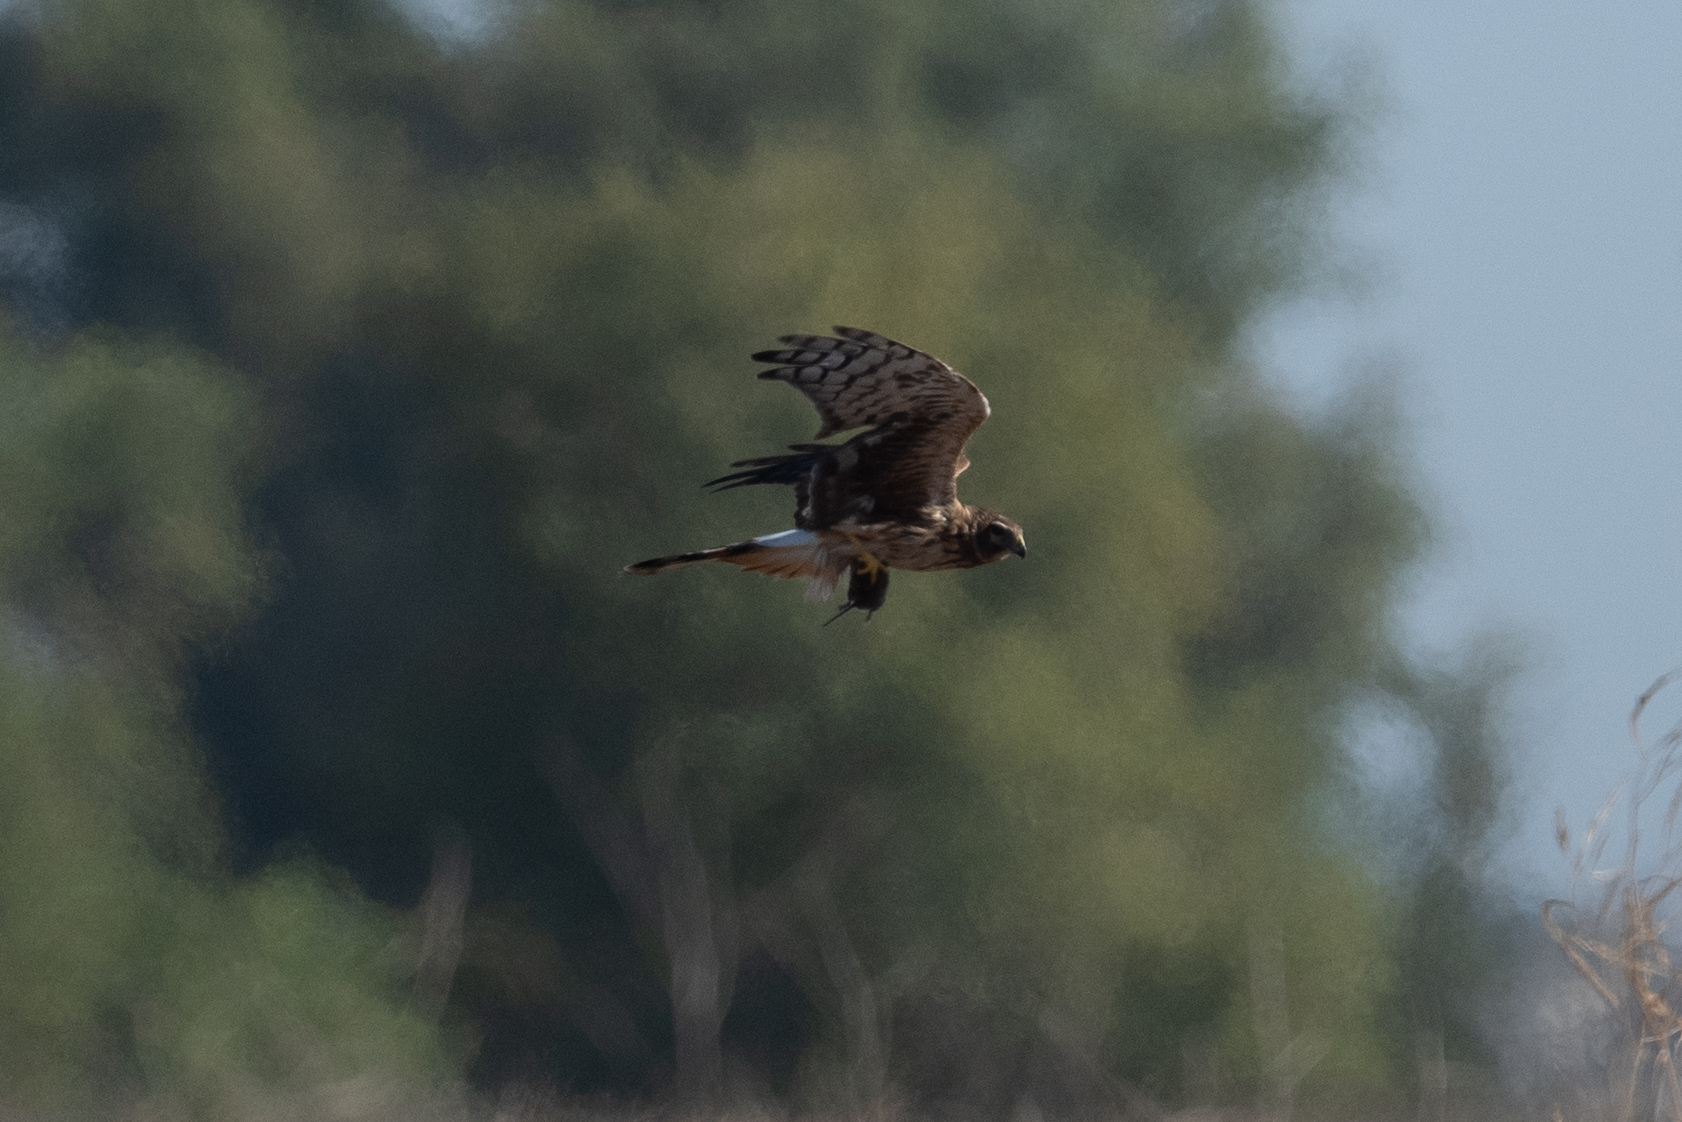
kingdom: Animalia
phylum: Chordata
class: Aves
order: Accipitriformes
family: Accipitridae
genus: Circus
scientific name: Circus cyaneus
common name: Hen harrier
